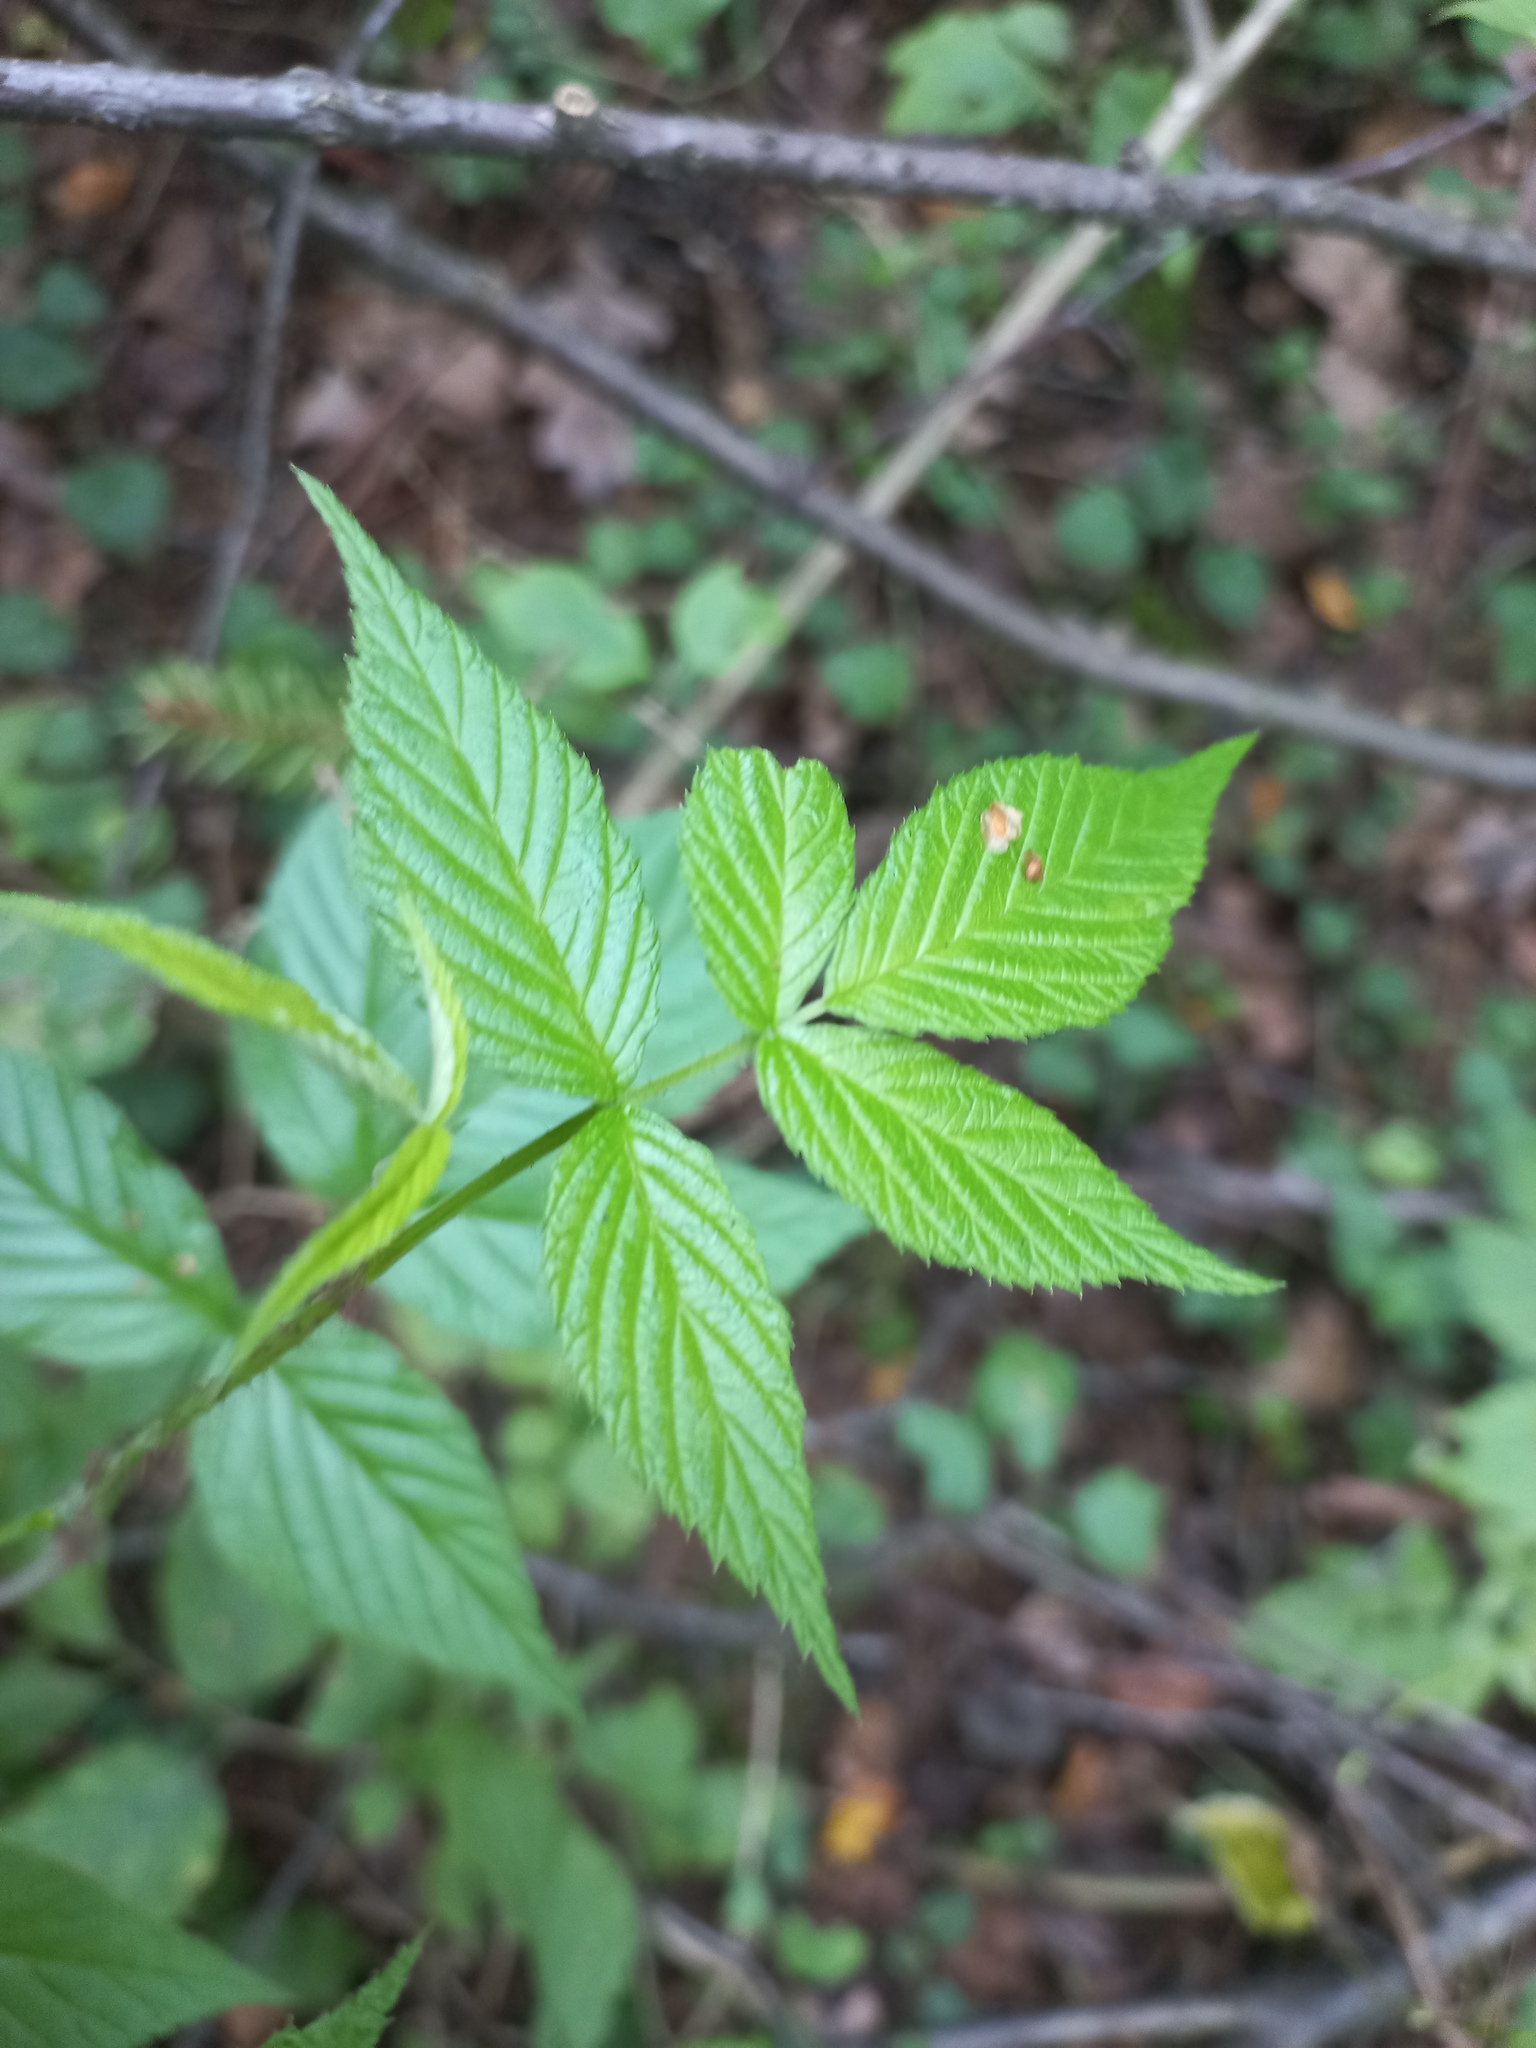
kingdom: Plantae
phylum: Tracheophyta
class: Magnoliopsida
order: Rosales
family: Rosaceae
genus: Rubus
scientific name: Rubus idaeus
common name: Raspberry
